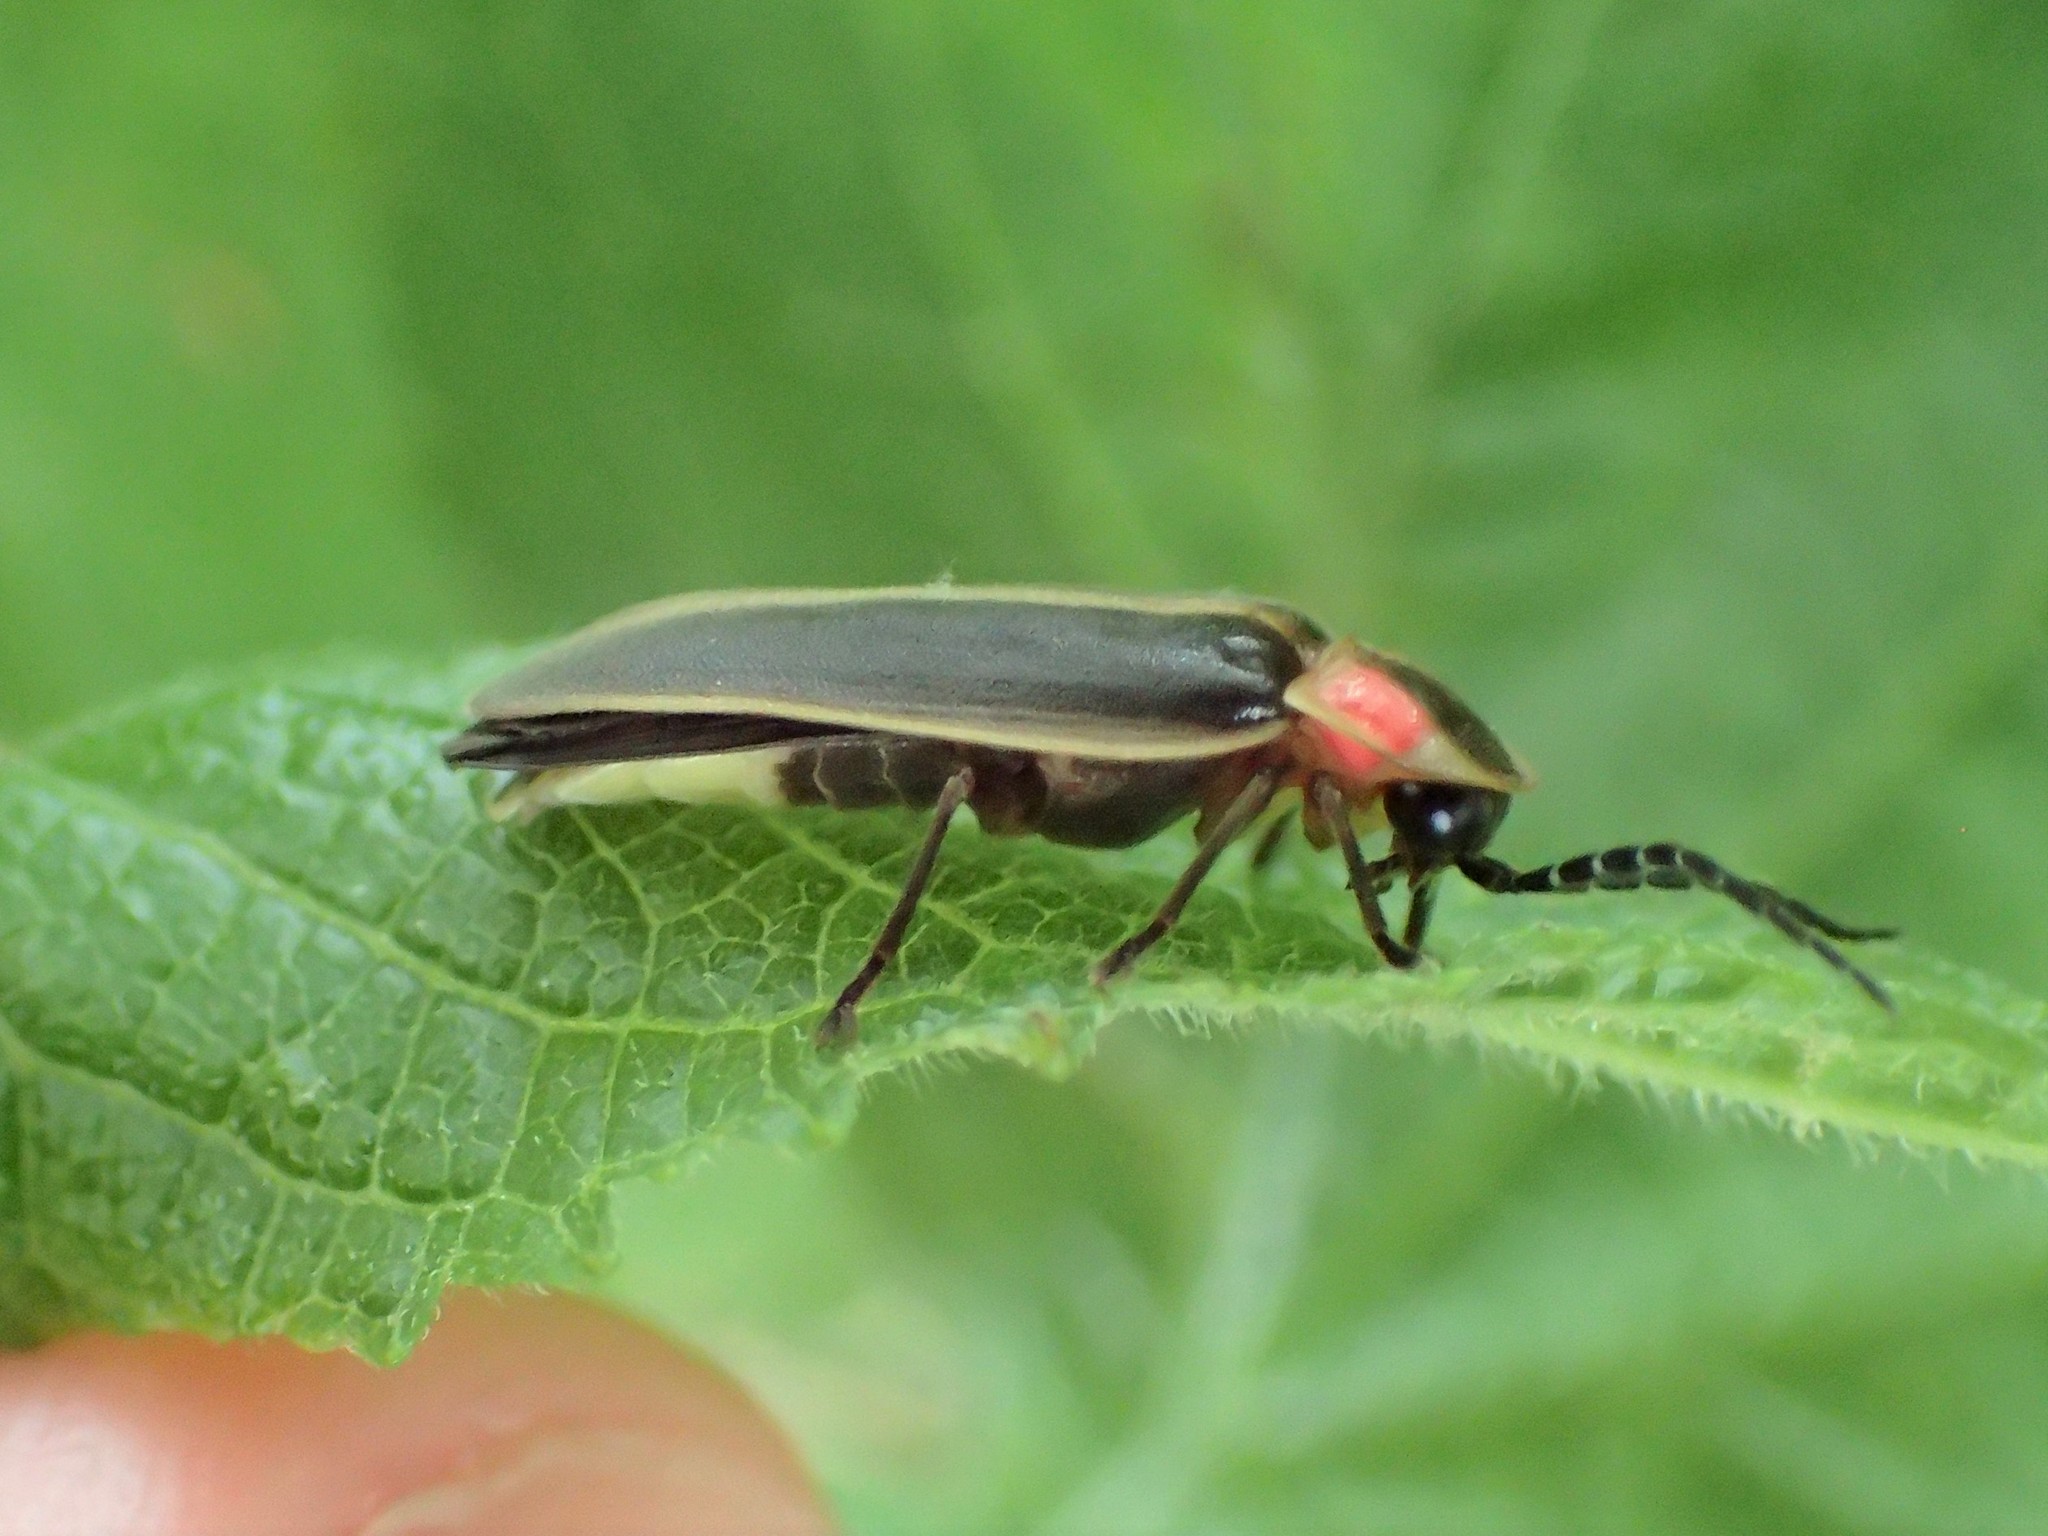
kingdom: Animalia
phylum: Arthropoda
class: Insecta
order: Coleoptera
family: Lampyridae
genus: Photinus
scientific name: Photinus pyralis
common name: Big dipper firefly
